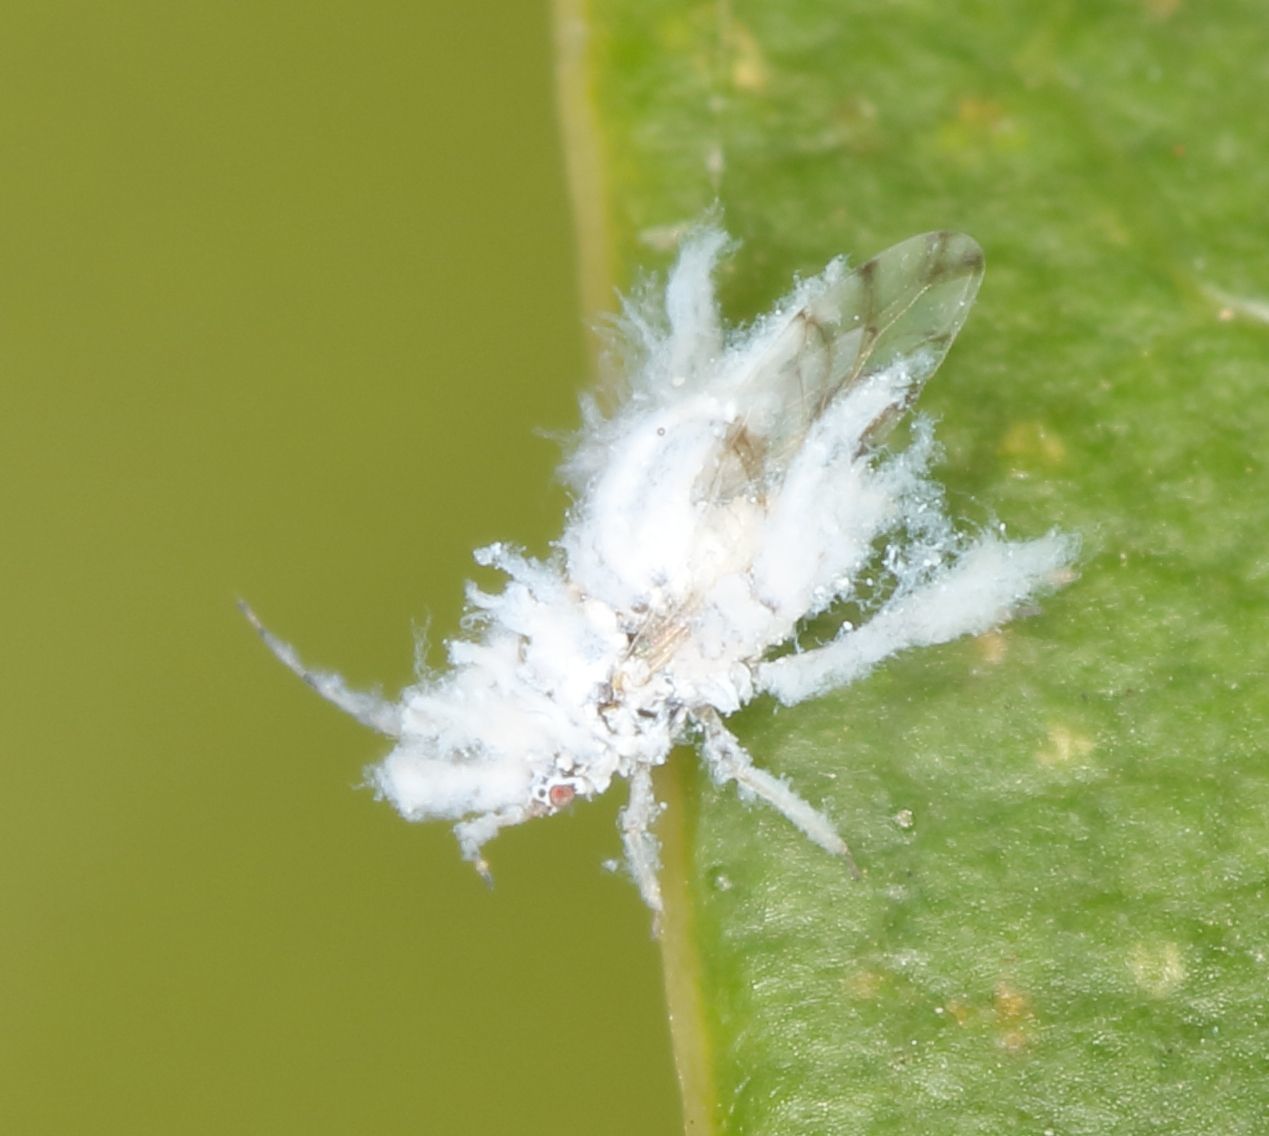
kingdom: Animalia
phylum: Arthropoda
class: Insecta
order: Hemiptera
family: Aphididae
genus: Shivaphis
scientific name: Shivaphis celti
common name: Asian wooly hackberry aphid
